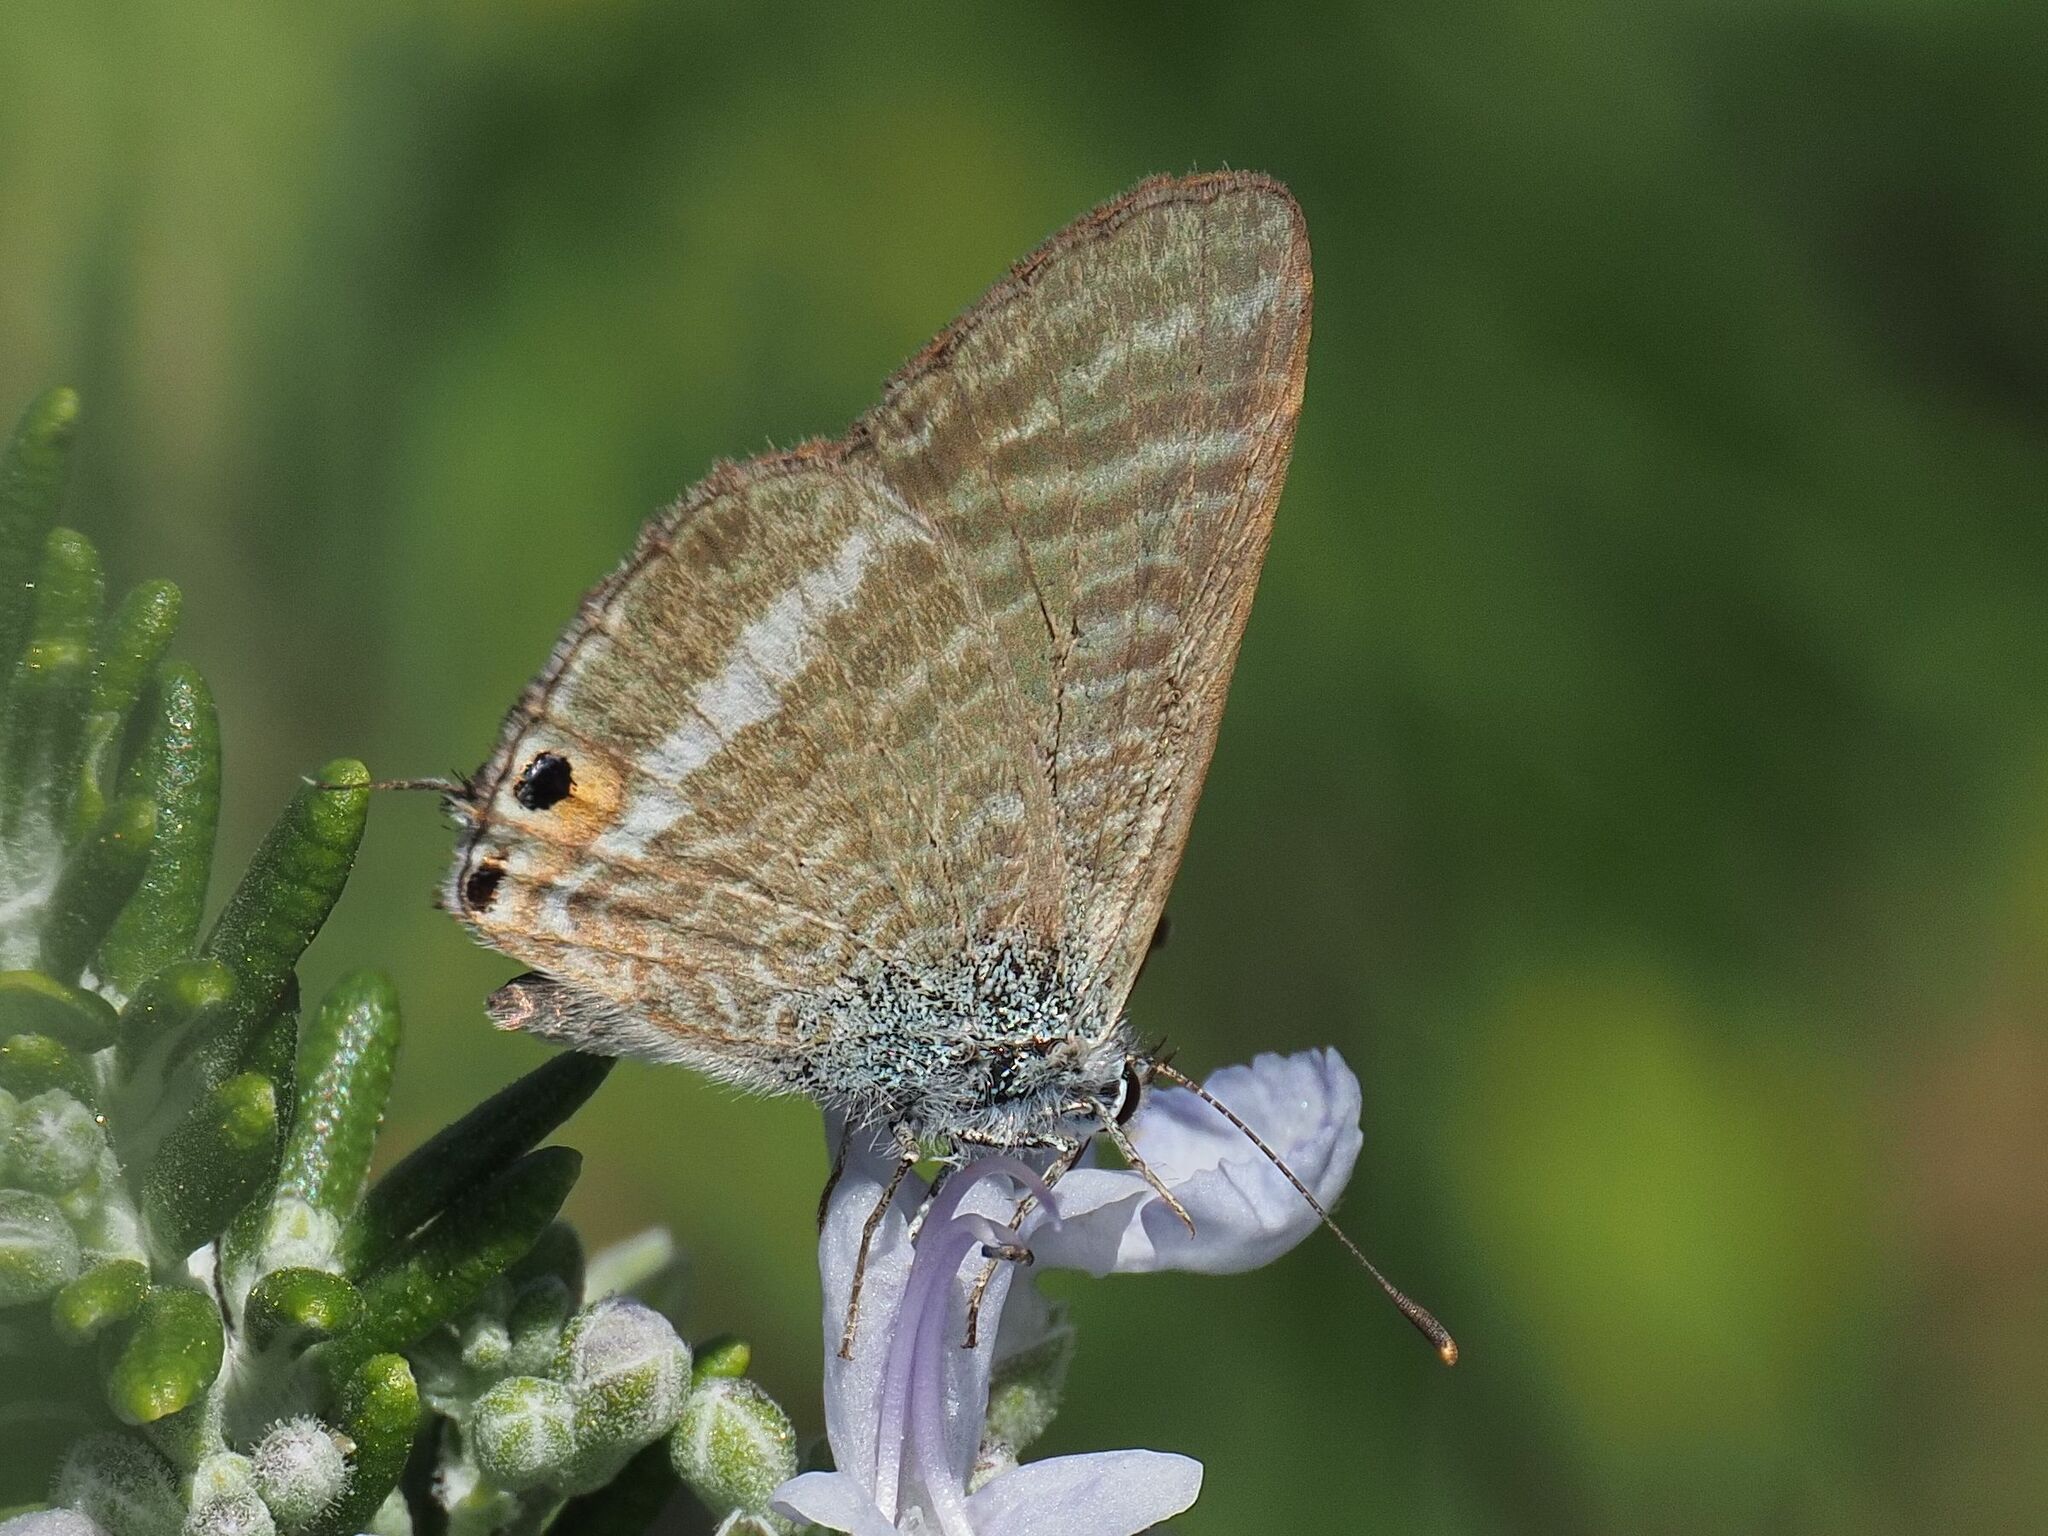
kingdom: Animalia
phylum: Arthropoda
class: Insecta
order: Lepidoptera
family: Lycaenidae
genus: Lampides
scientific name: Lampides boeticus
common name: Long-tailed blue
